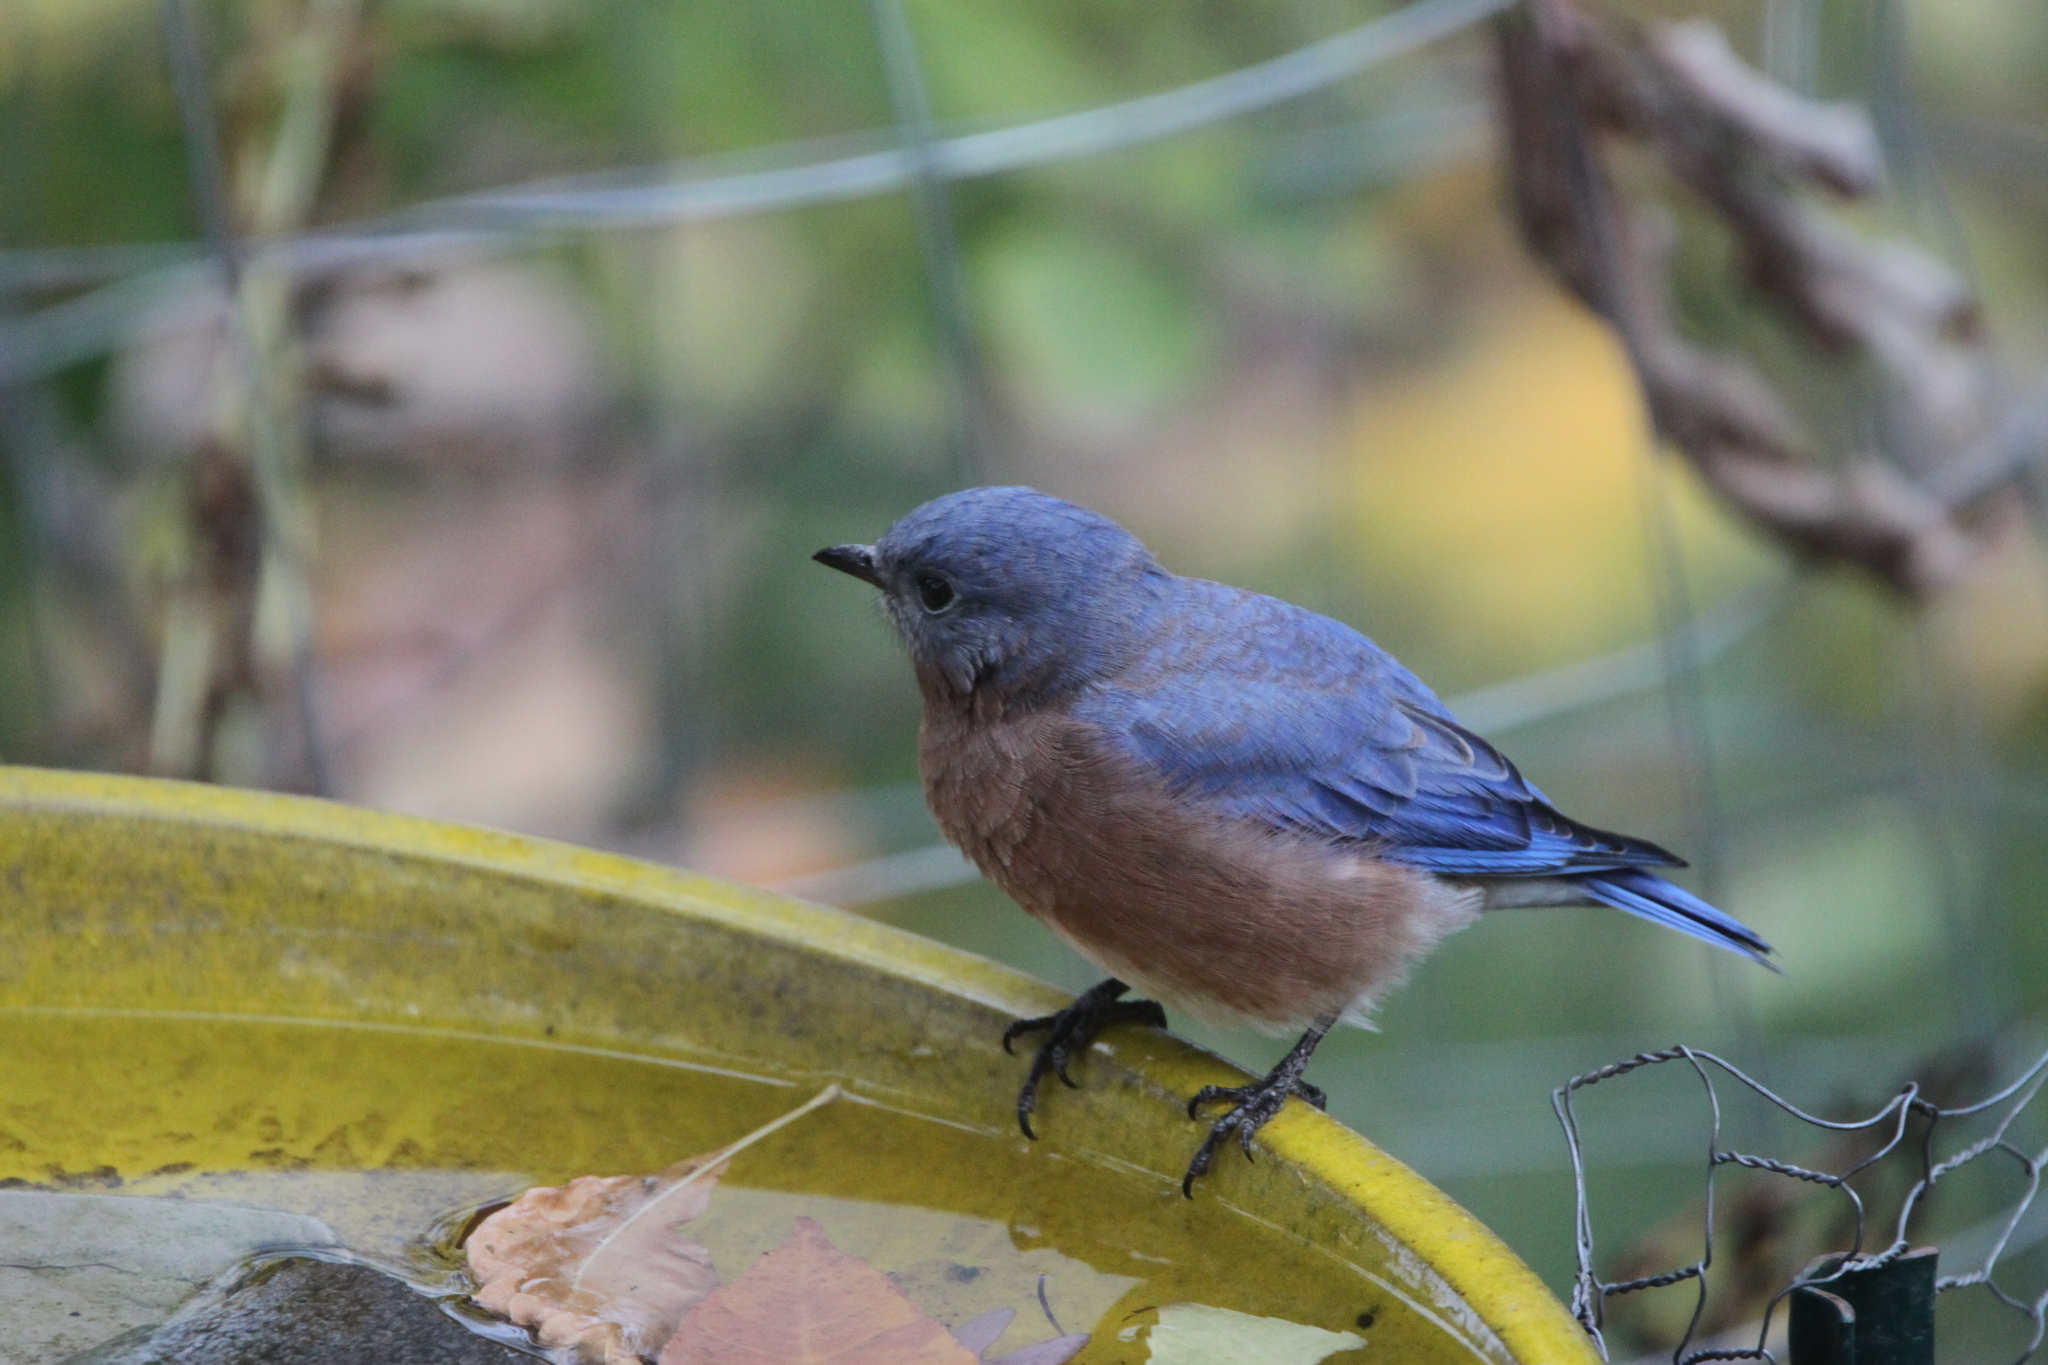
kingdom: Animalia
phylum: Chordata
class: Aves
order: Passeriformes
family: Turdidae
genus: Sialia
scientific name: Sialia sialis
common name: Eastern bluebird
